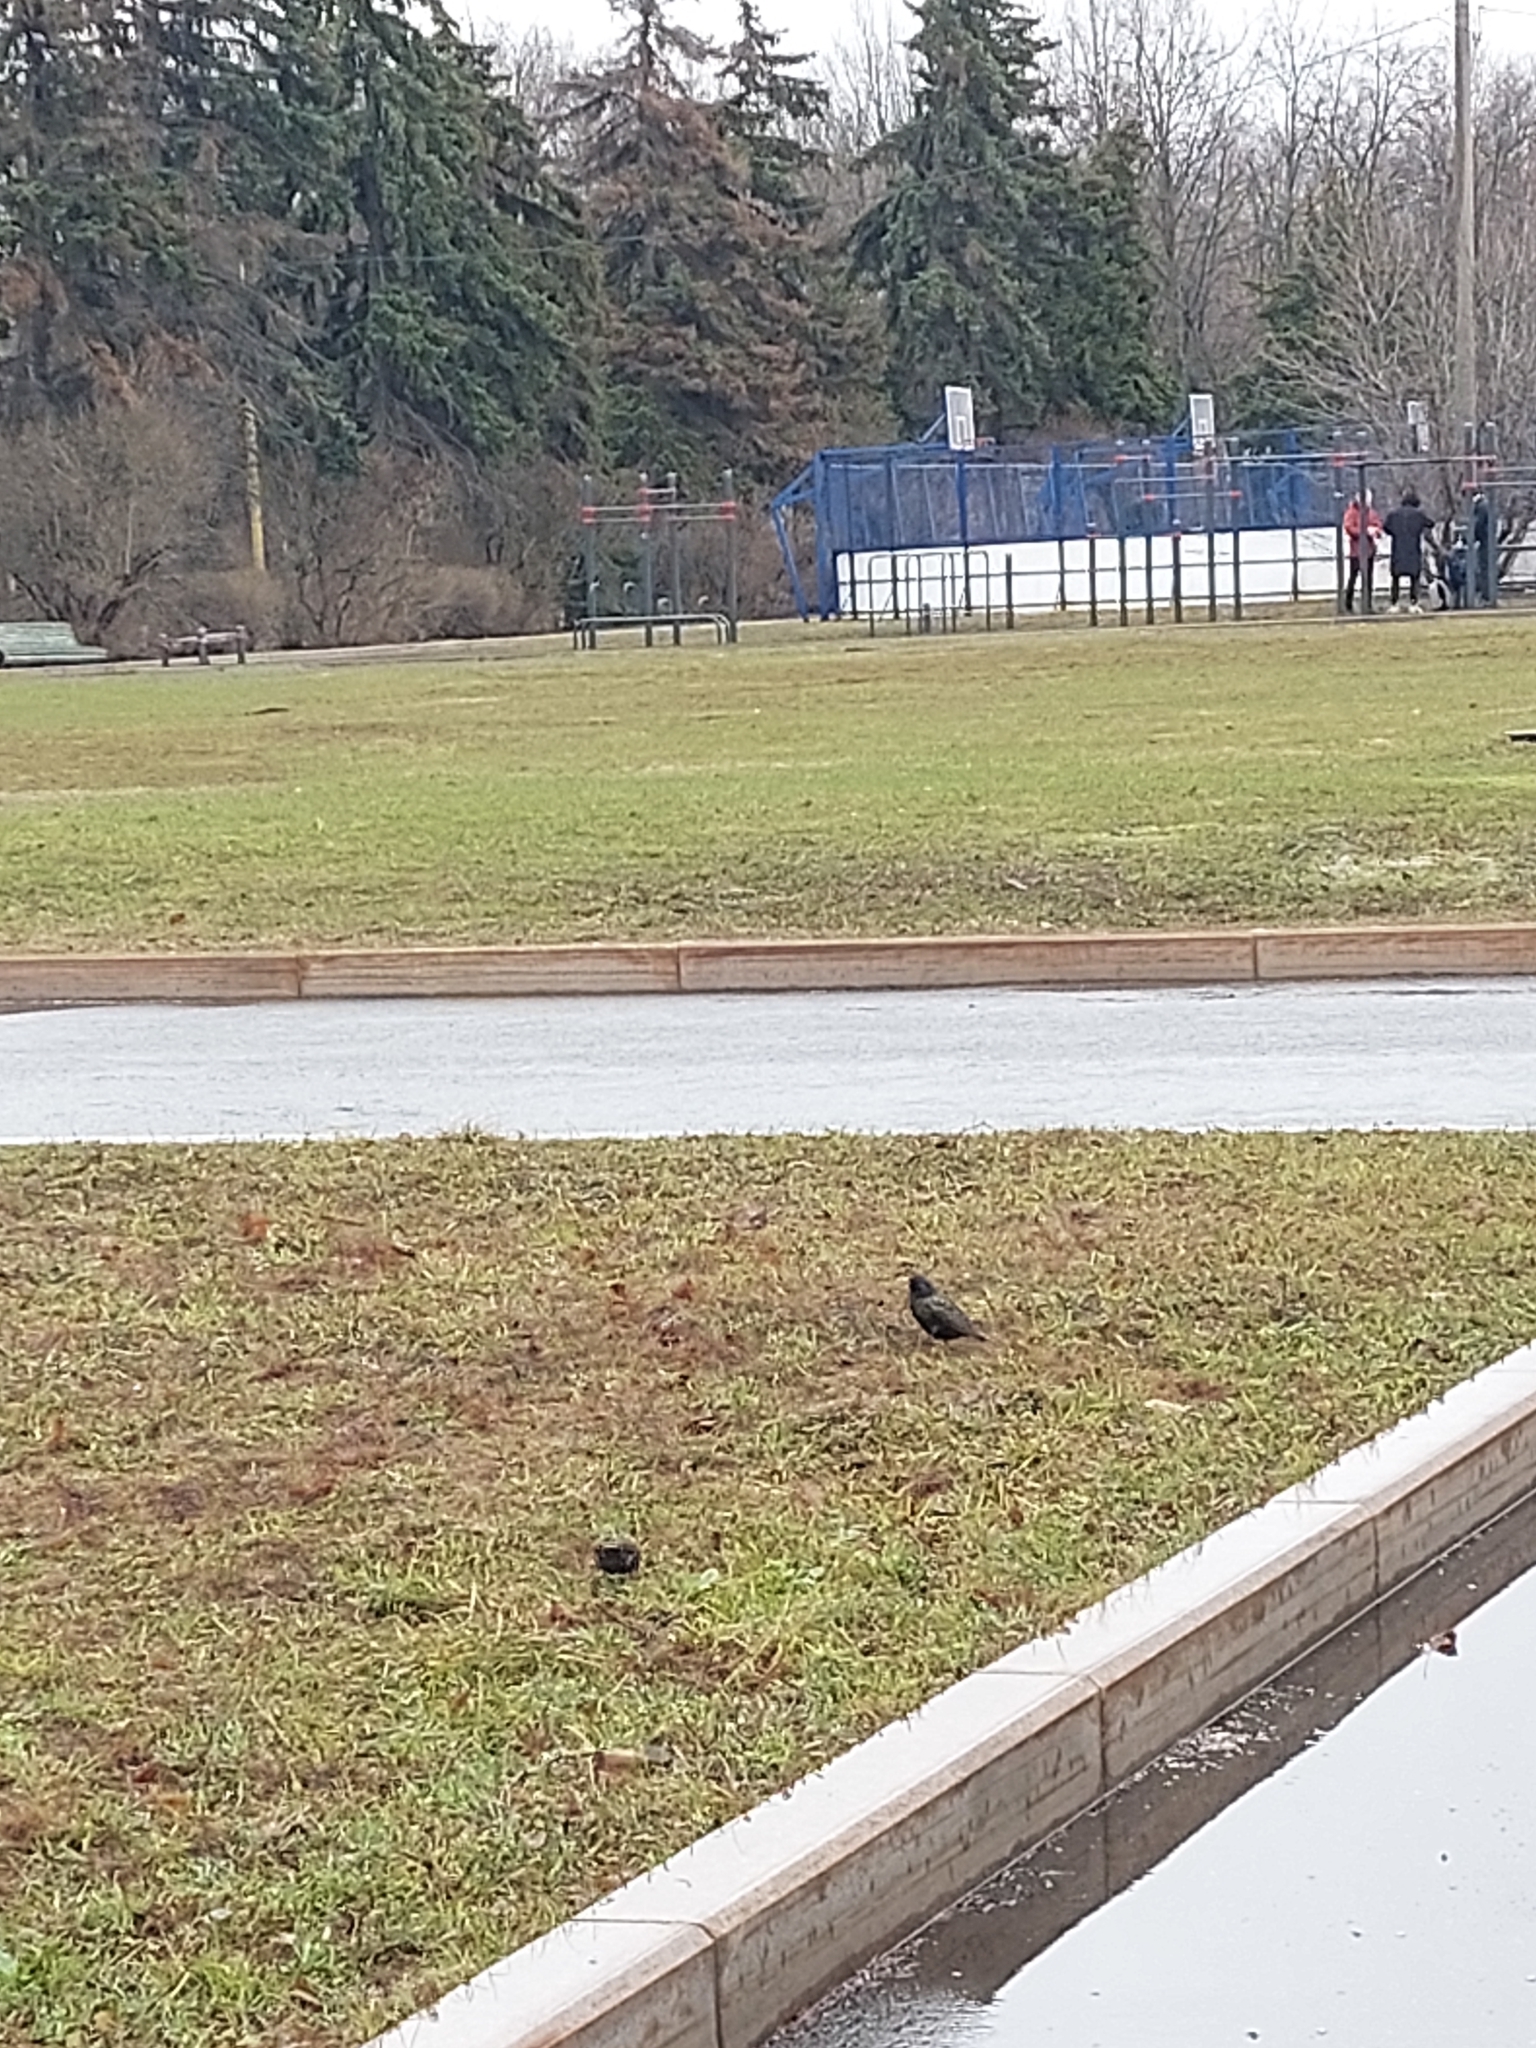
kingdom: Animalia
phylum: Chordata
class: Aves
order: Passeriformes
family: Sturnidae
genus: Sturnus
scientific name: Sturnus vulgaris
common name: Common starling
